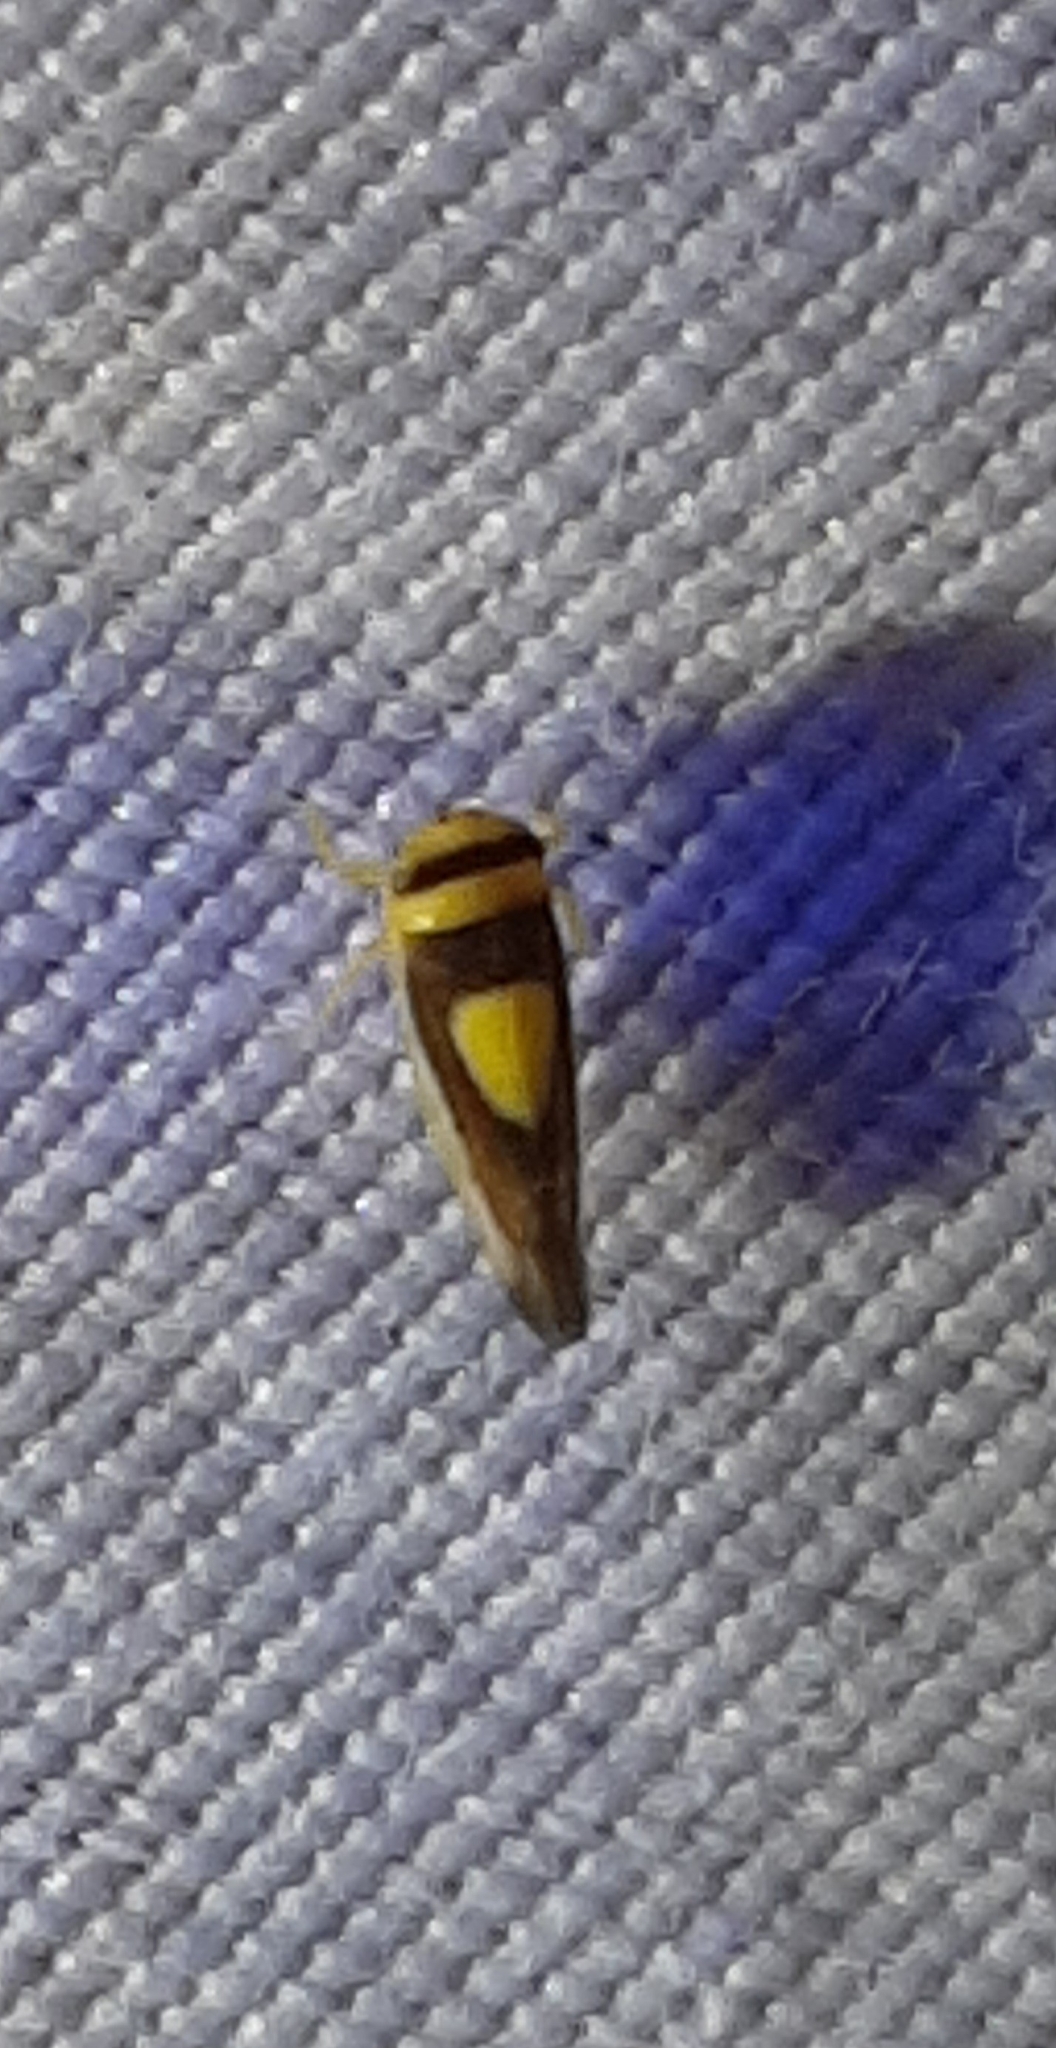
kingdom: Animalia
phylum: Arthropoda
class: Insecta
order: Hemiptera
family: Cicadellidae
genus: Colladonus
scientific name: Colladonus clitellarius
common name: The saddleback leafhopper
